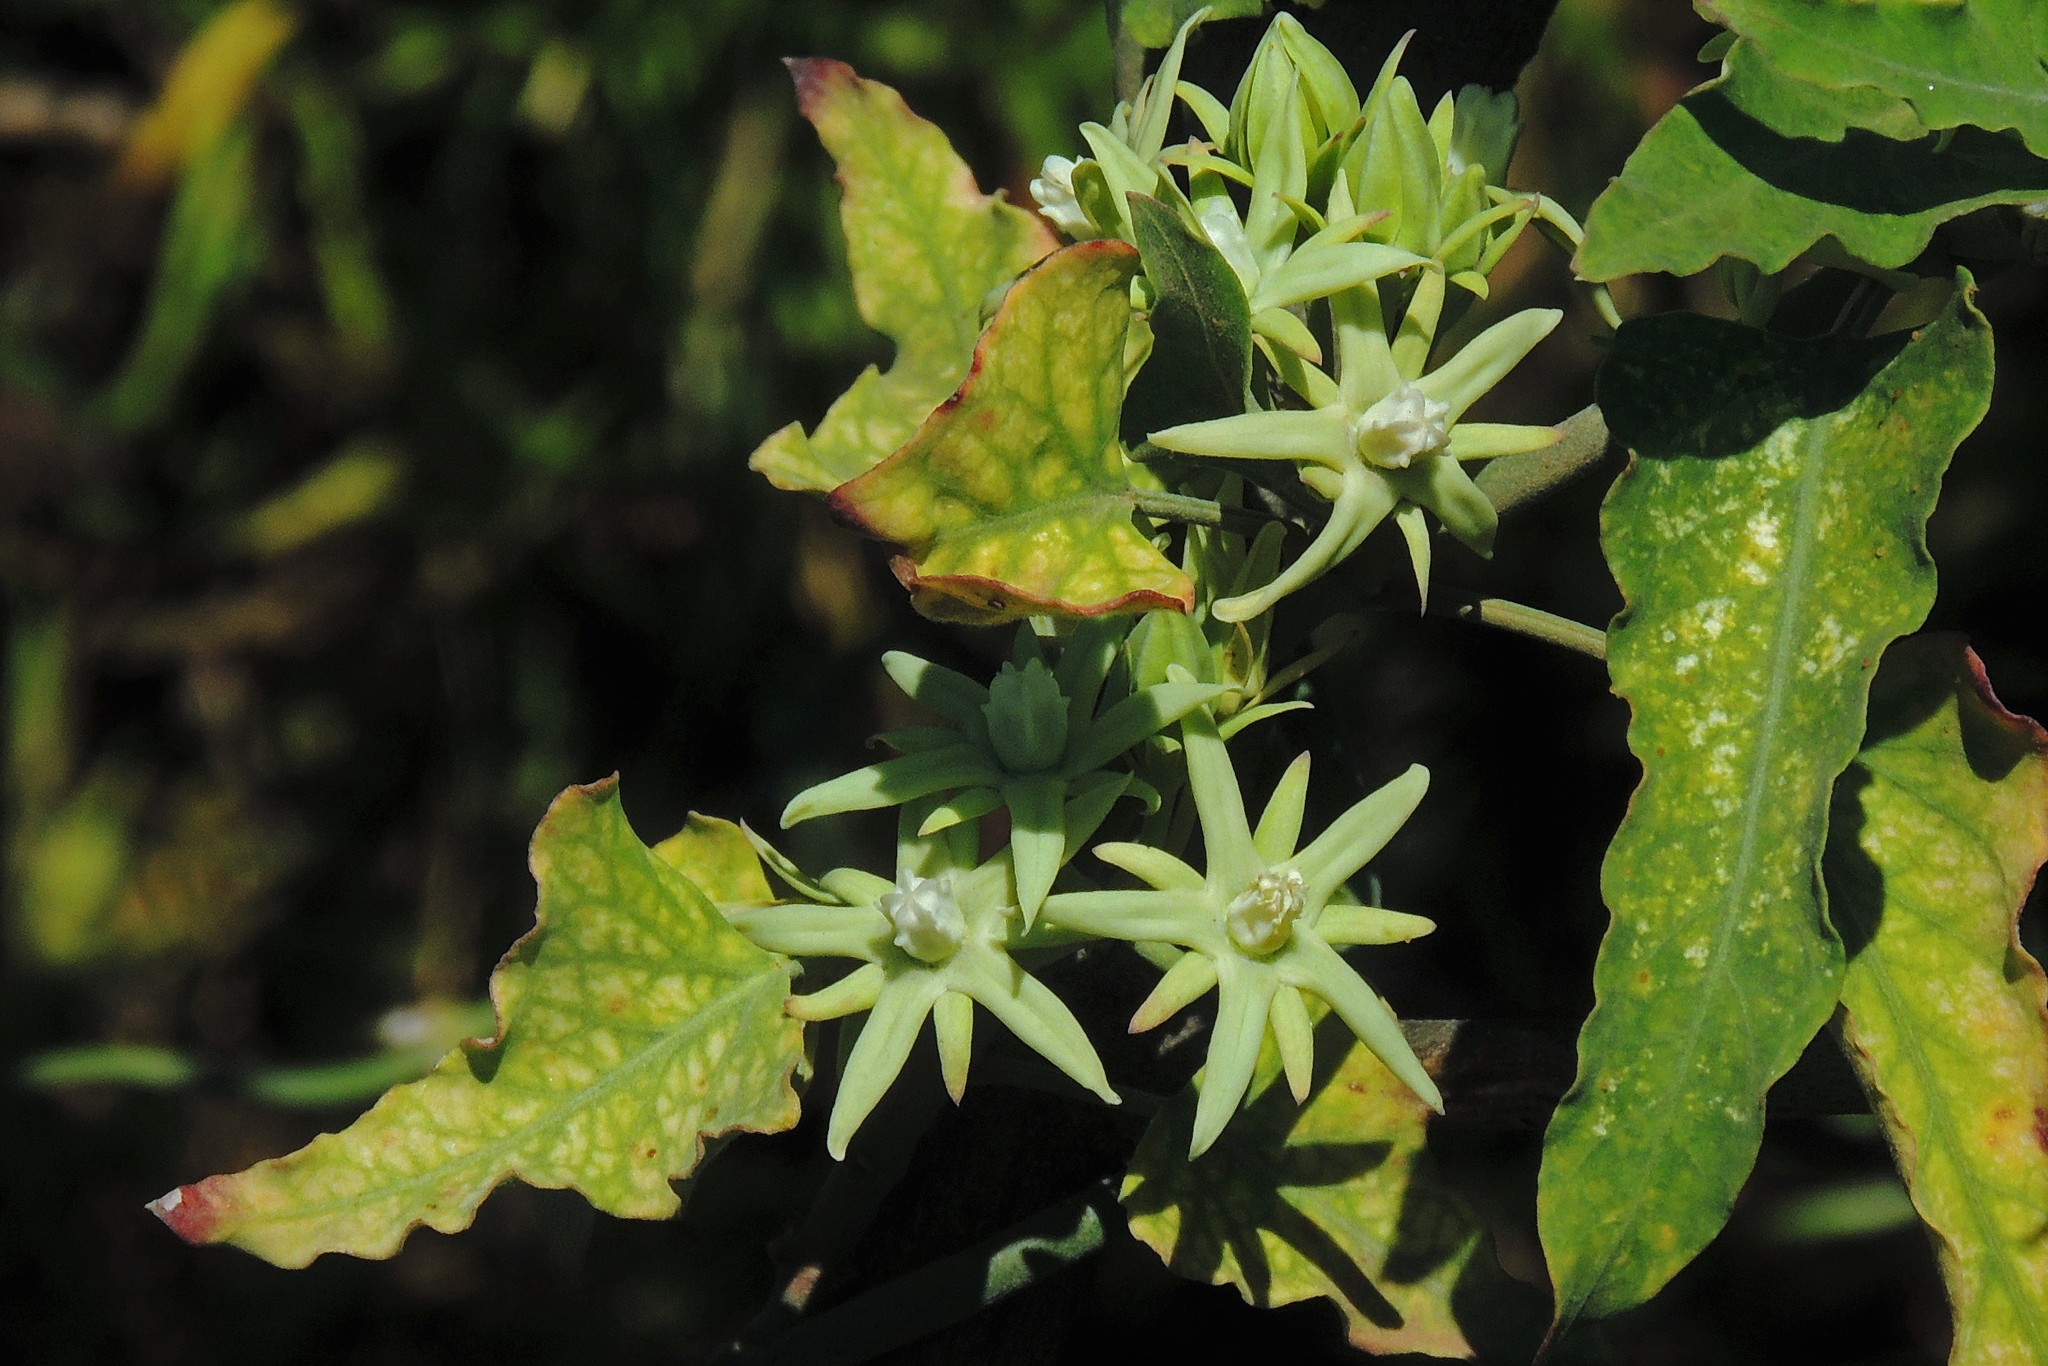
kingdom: Plantae
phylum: Tracheophyta
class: Magnoliopsida
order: Gentianales
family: Apocynaceae
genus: Araujia
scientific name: Araujia odorata
